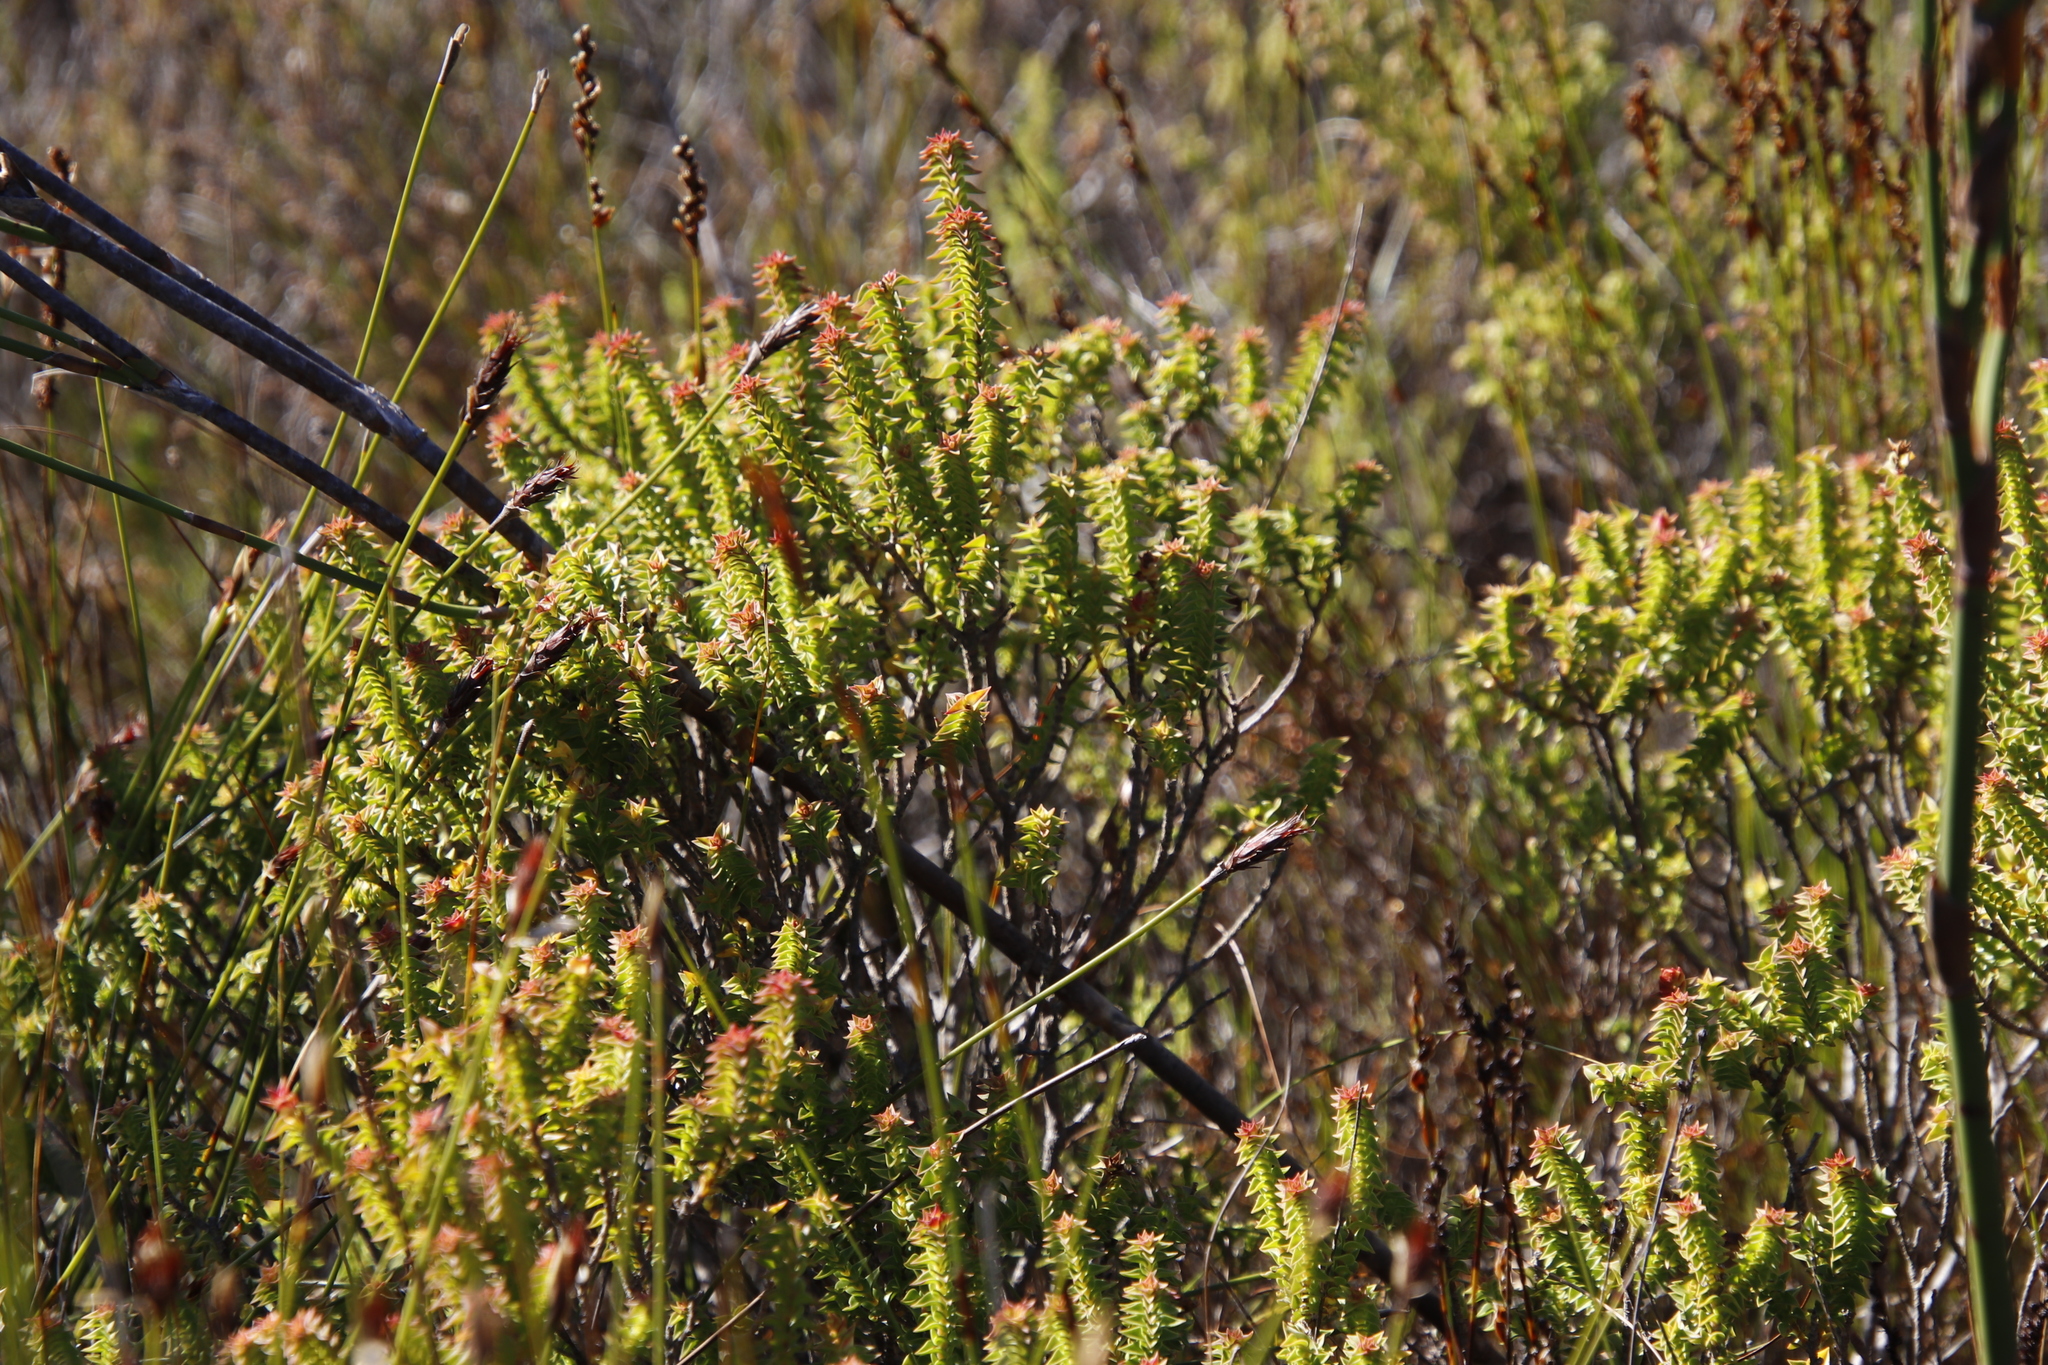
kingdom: Plantae
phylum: Tracheophyta
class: Magnoliopsida
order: Myrtales
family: Penaeaceae
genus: Penaea
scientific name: Penaea mucronata
